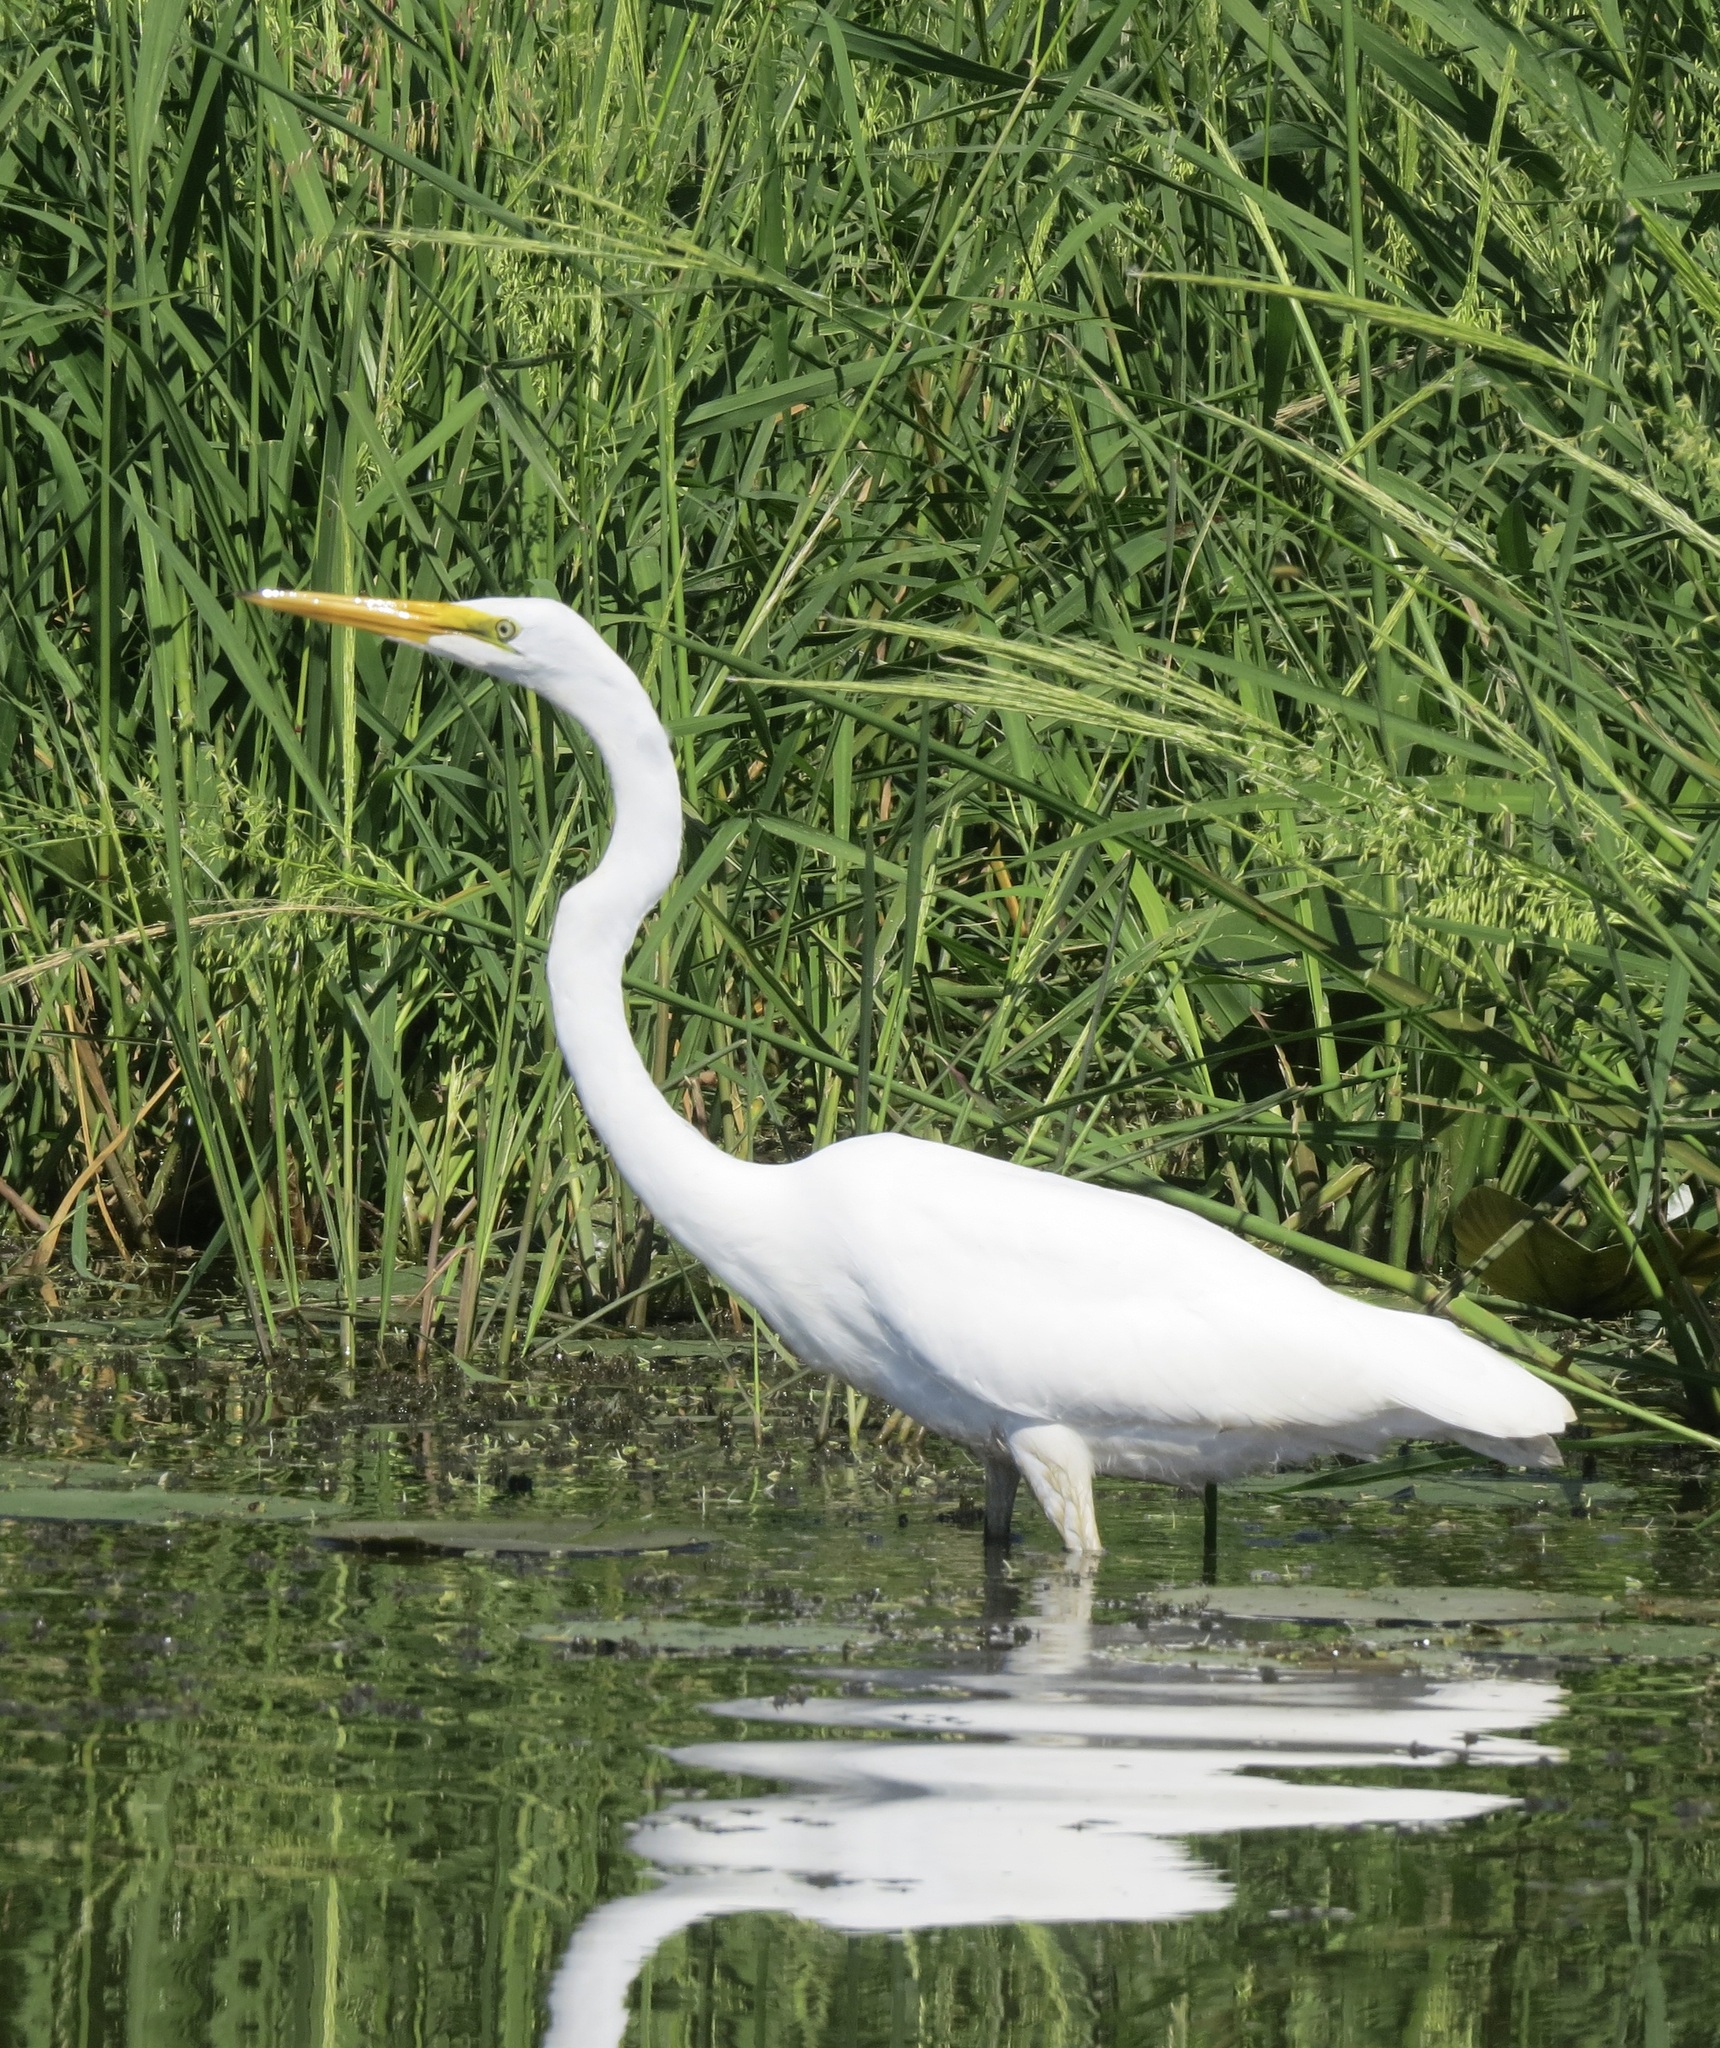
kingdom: Animalia
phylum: Chordata
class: Aves
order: Pelecaniformes
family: Ardeidae
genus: Ardea
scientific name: Ardea alba
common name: Great egret
